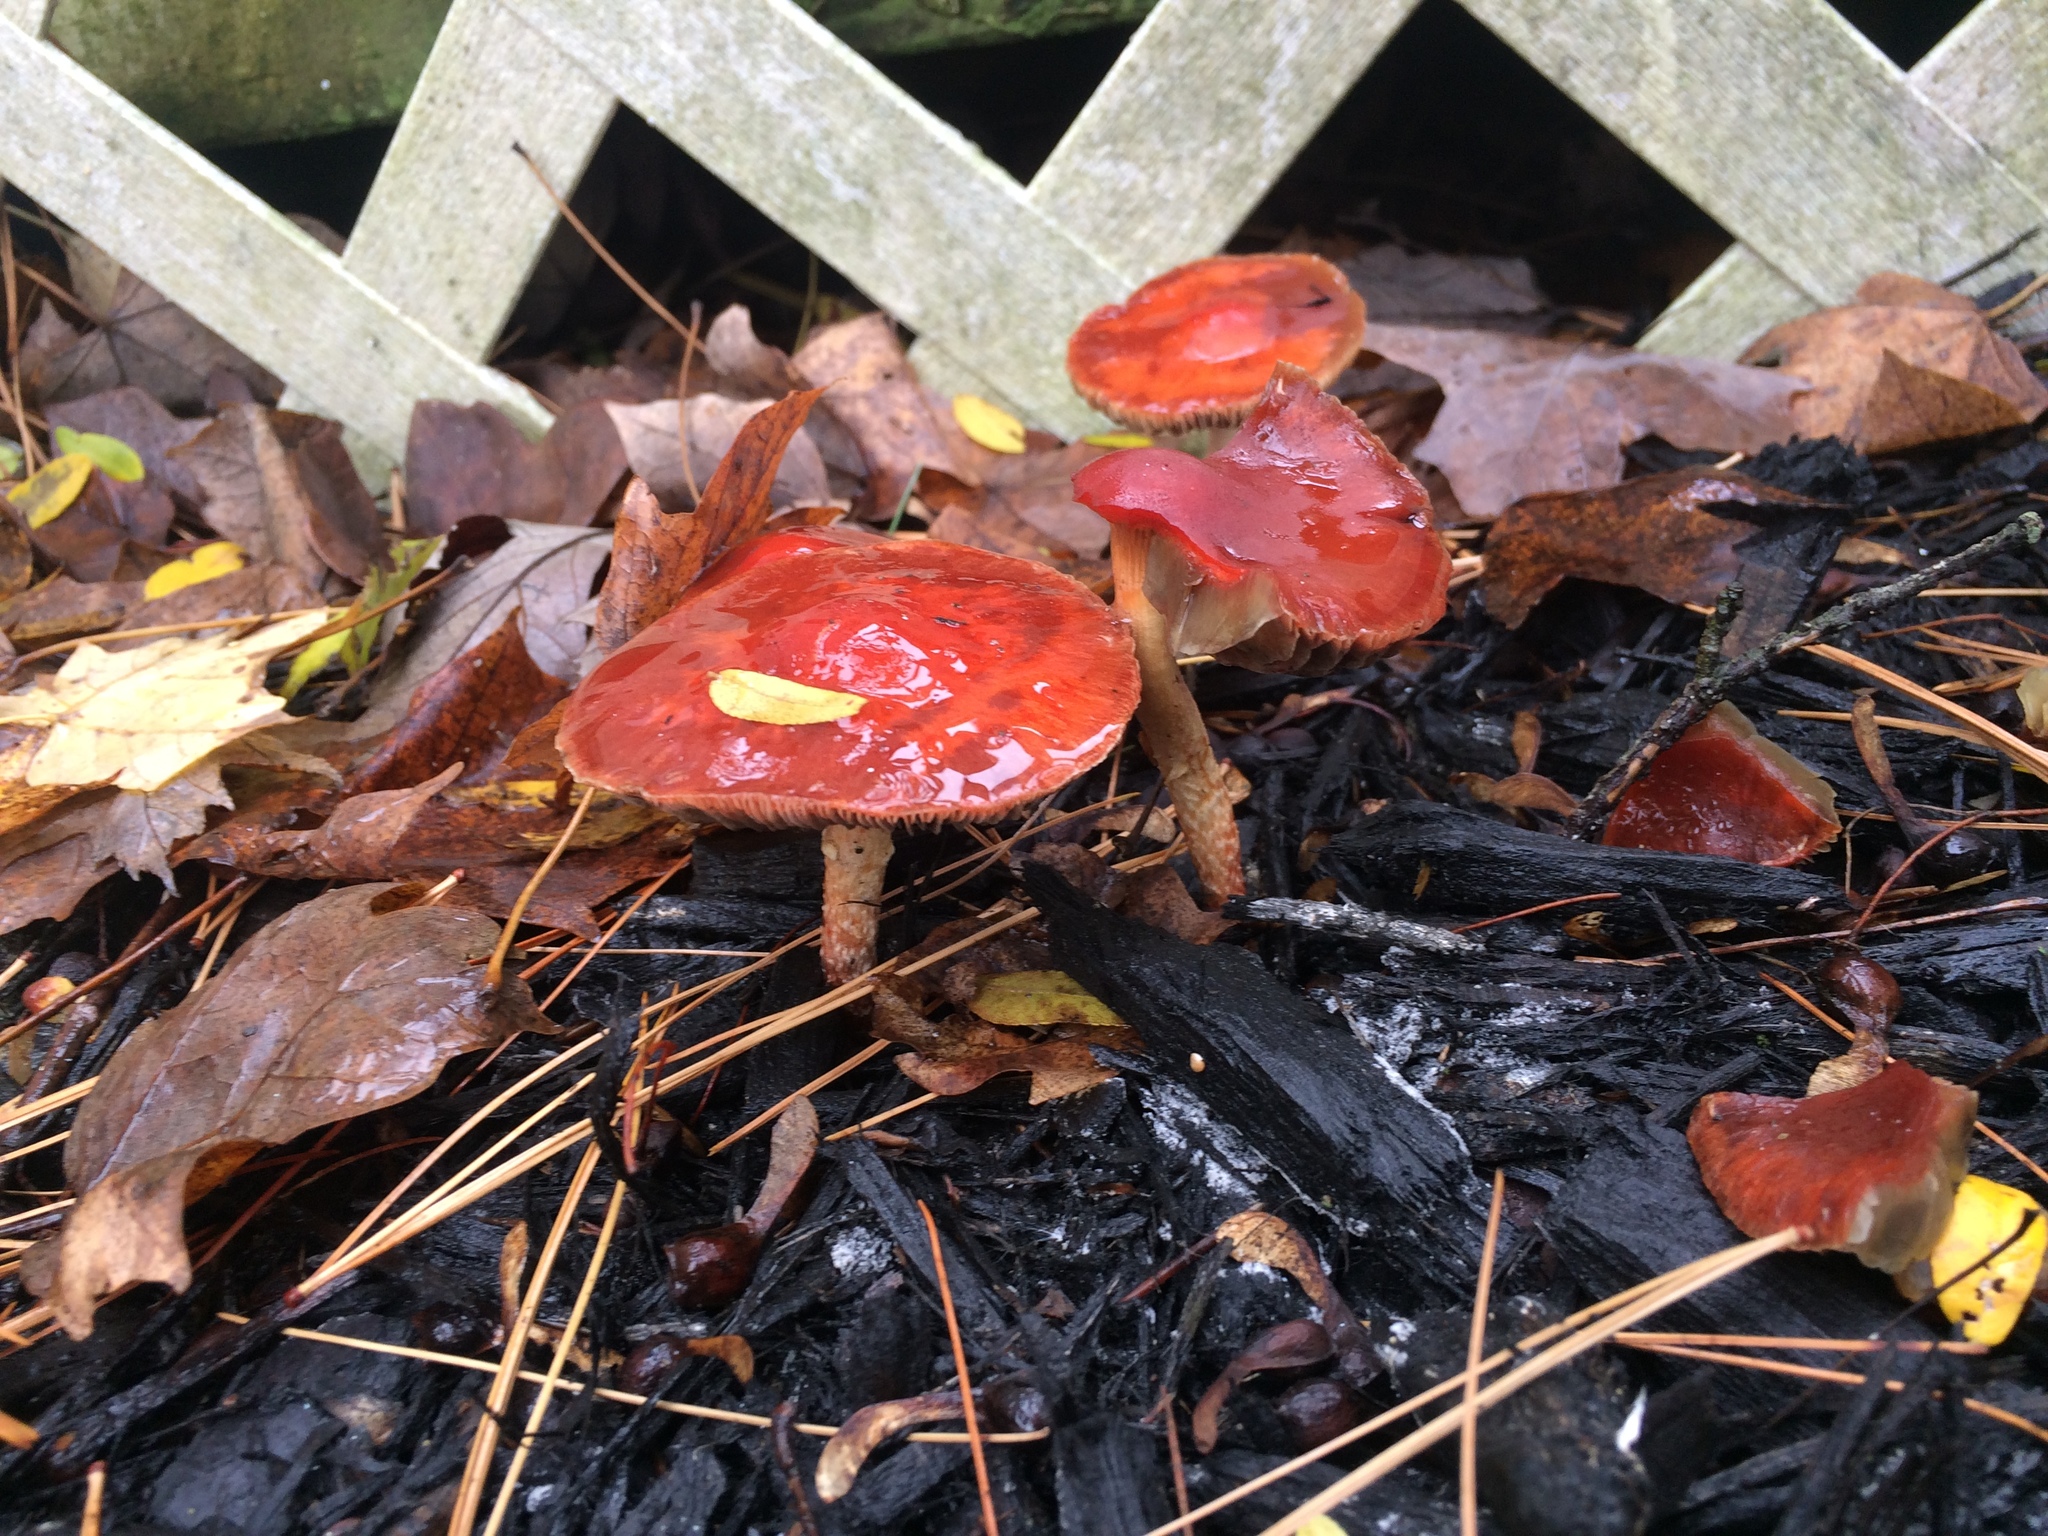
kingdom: Fungi
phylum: Basidiomycota
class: Agaricomycetes
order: Agaricales
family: Strophariaceae
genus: Leratiomyces
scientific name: Leratiomyces ceres
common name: Redlead roundhead
